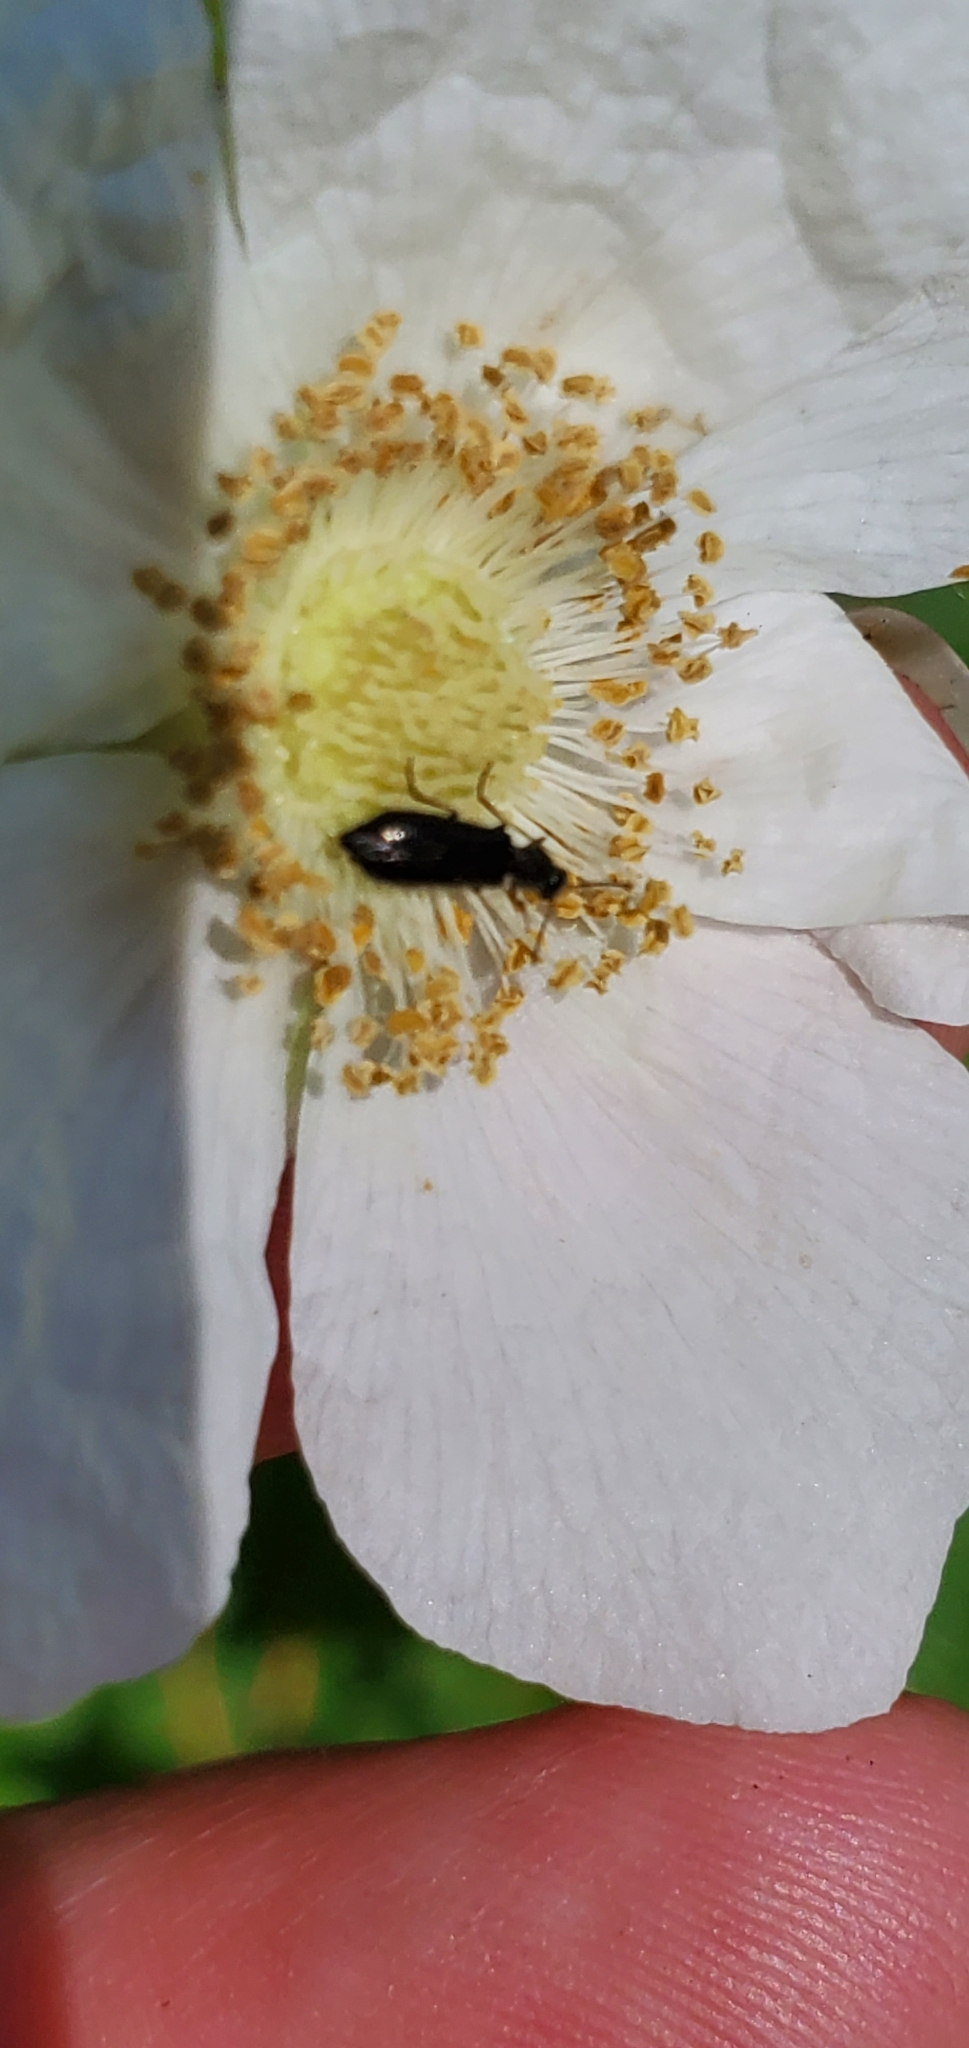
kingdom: Animalia
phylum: Arthropoda
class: Insecta
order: Coleoptera
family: Melyridae
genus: Dasytes
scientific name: Dasytes plumbeus
